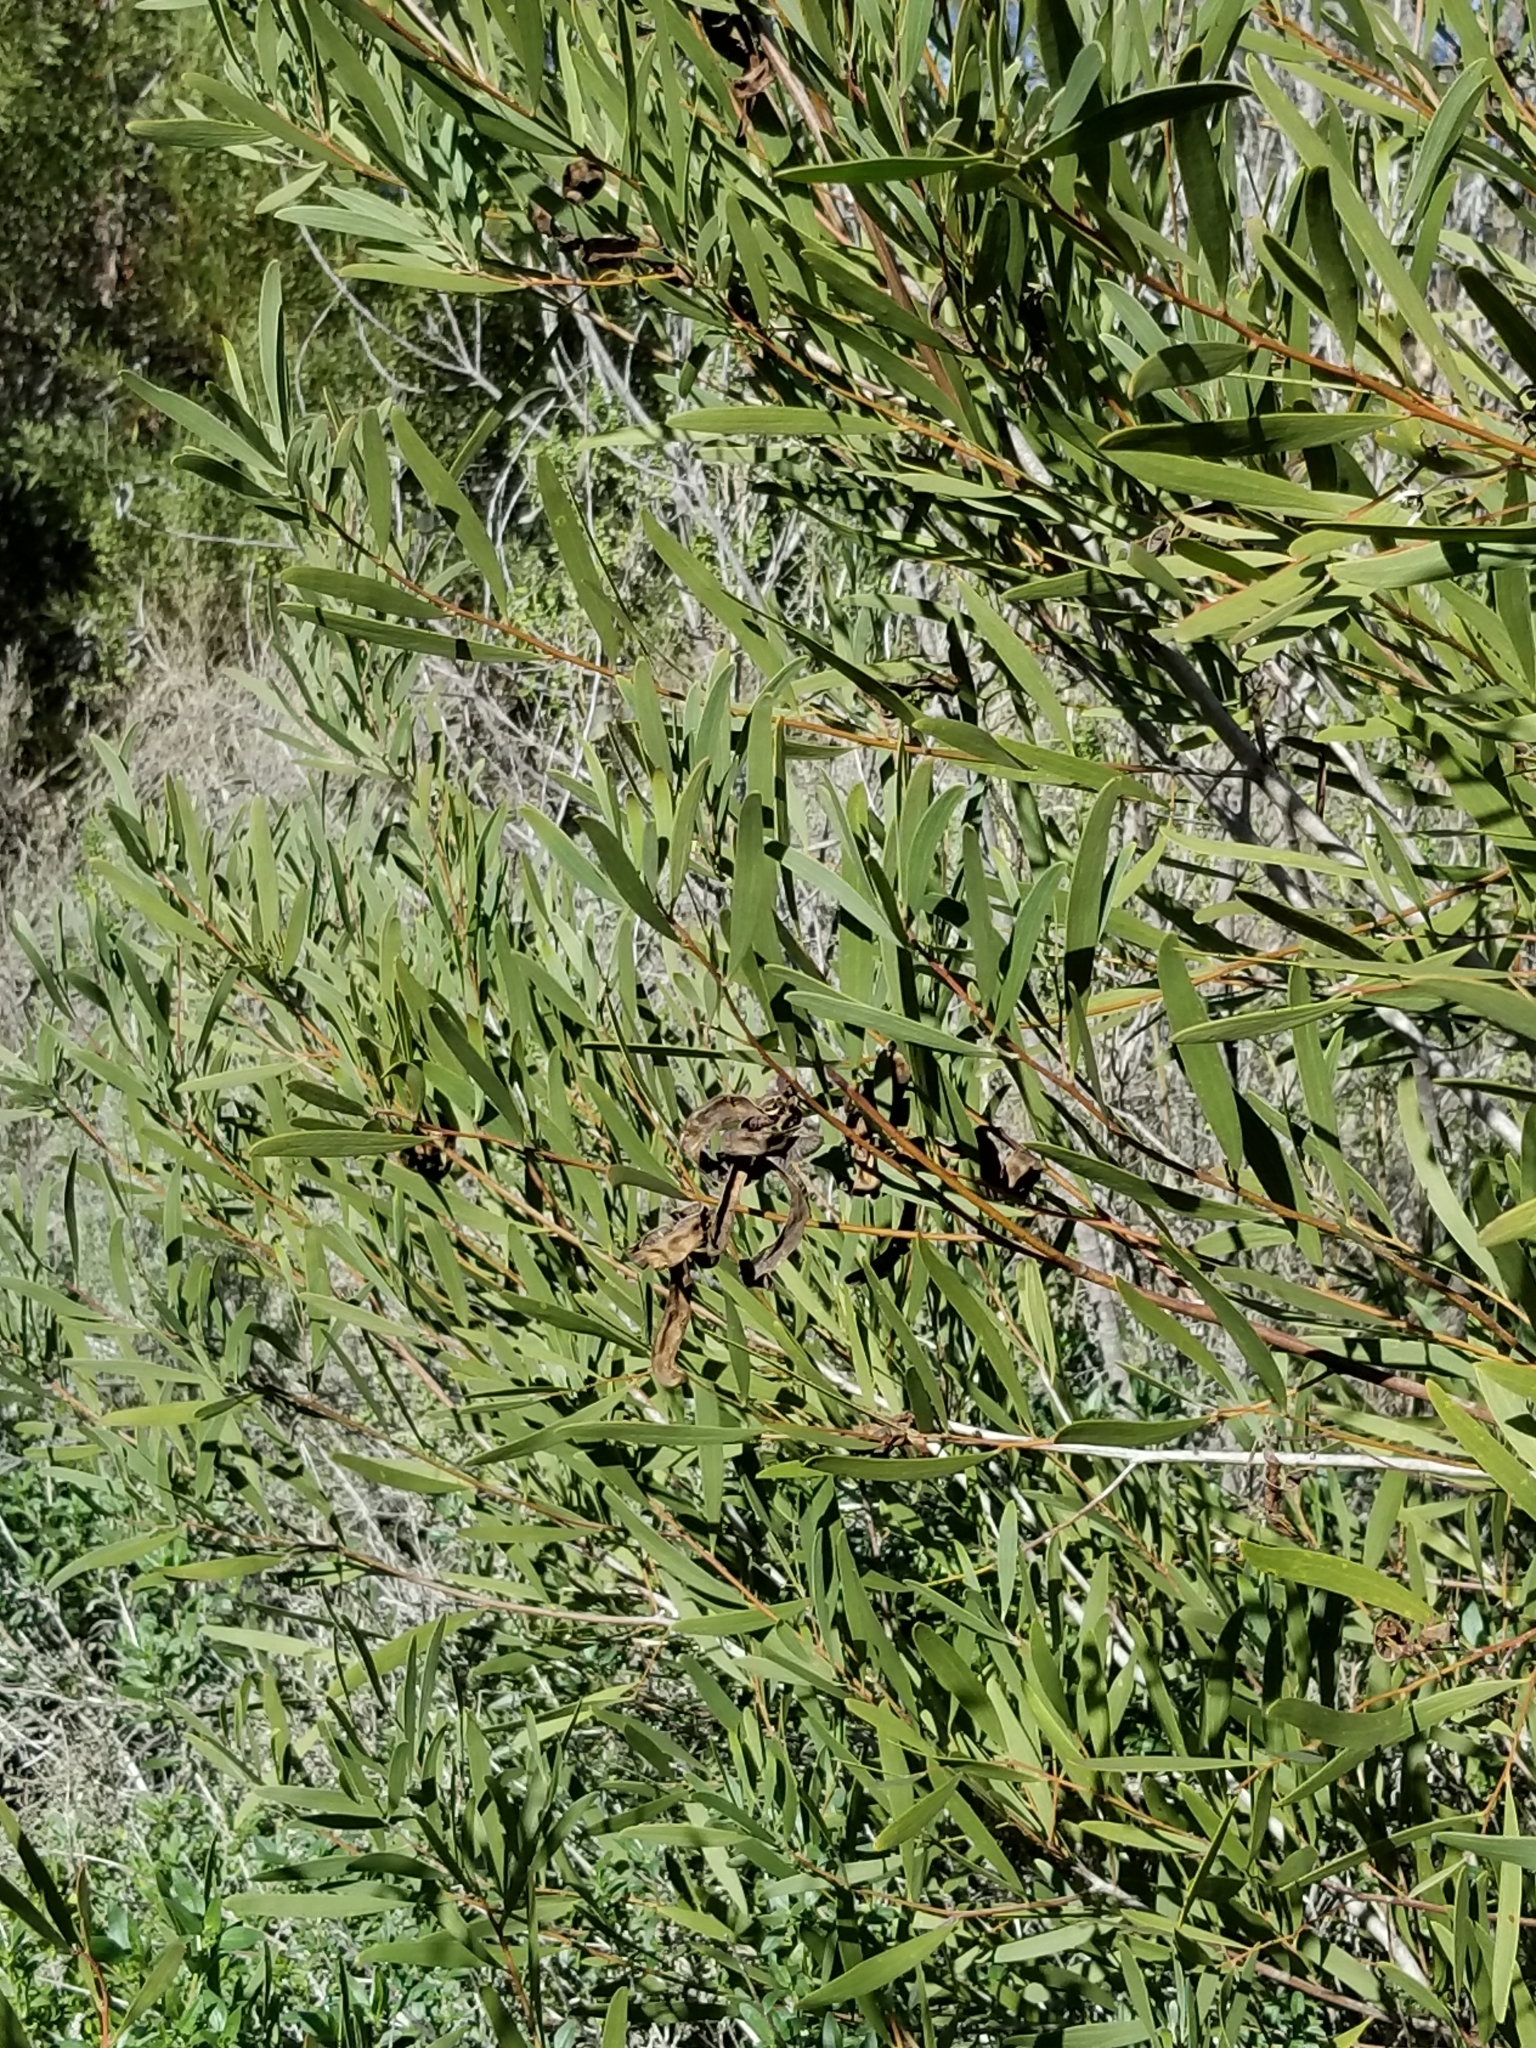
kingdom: Plantae
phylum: Tracheophyta
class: Magnoliopsida
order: Fabales
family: Fabaceae
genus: Acacia
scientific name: Acacia cyclops
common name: Coastal wattle
